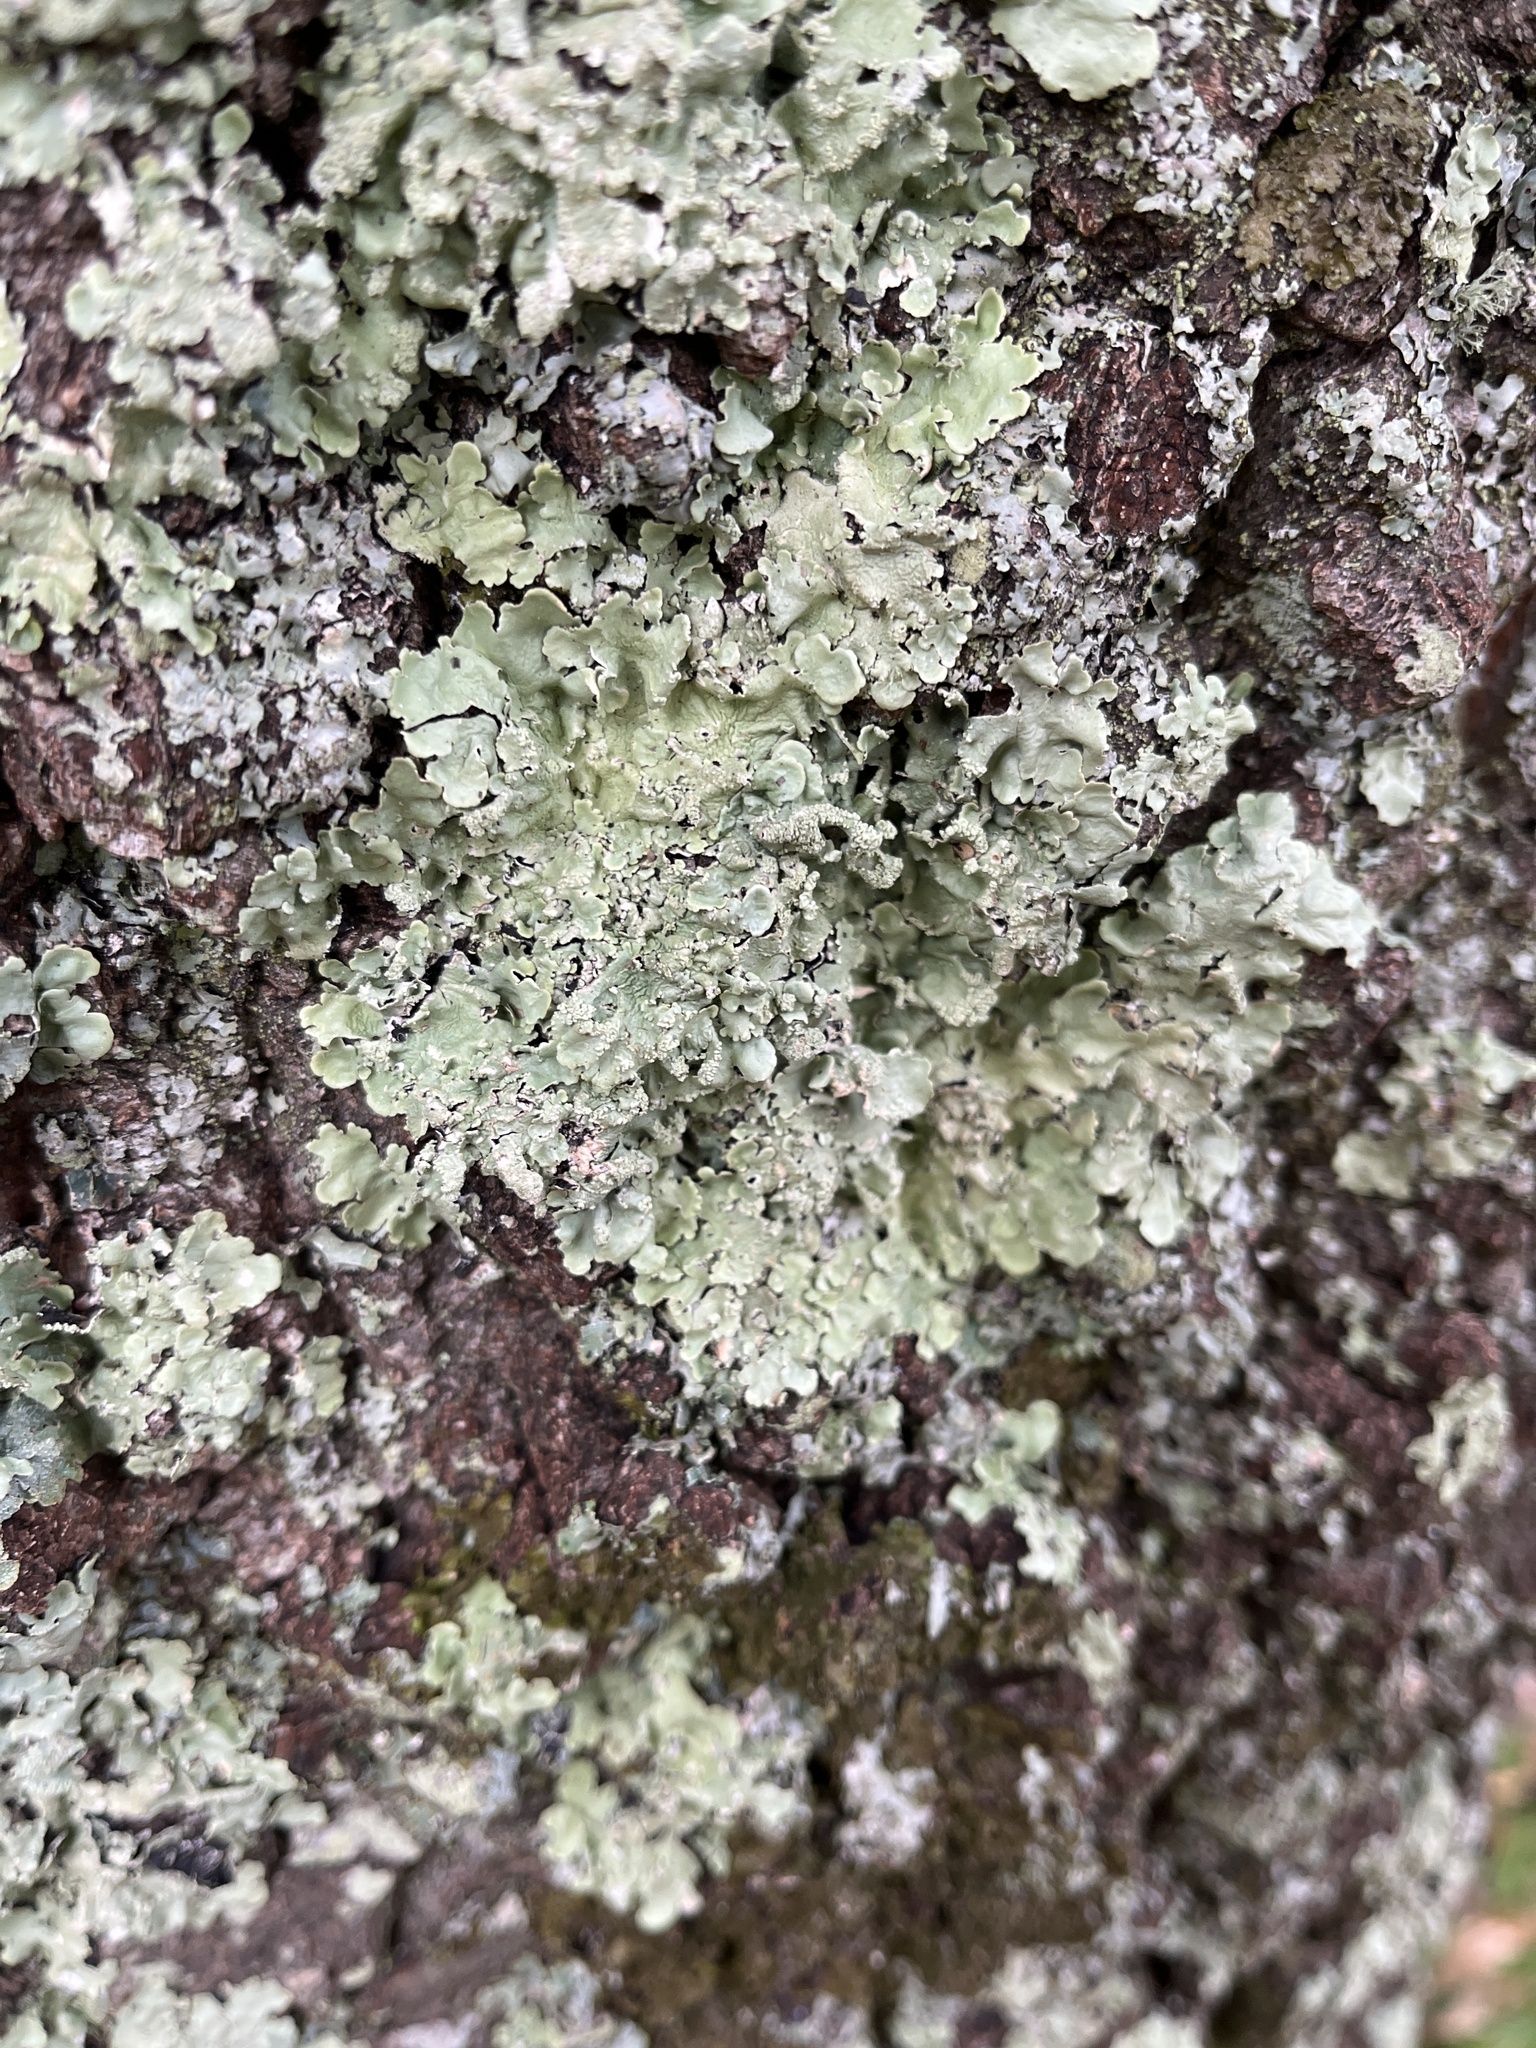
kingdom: Fungi
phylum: Ascomycota
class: Lecanoromycetes
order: Lecanorales
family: Parmeliaceae
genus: Flavoparmelia
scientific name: Flavoparmelia caperata
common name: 40-mile per hour lichen
